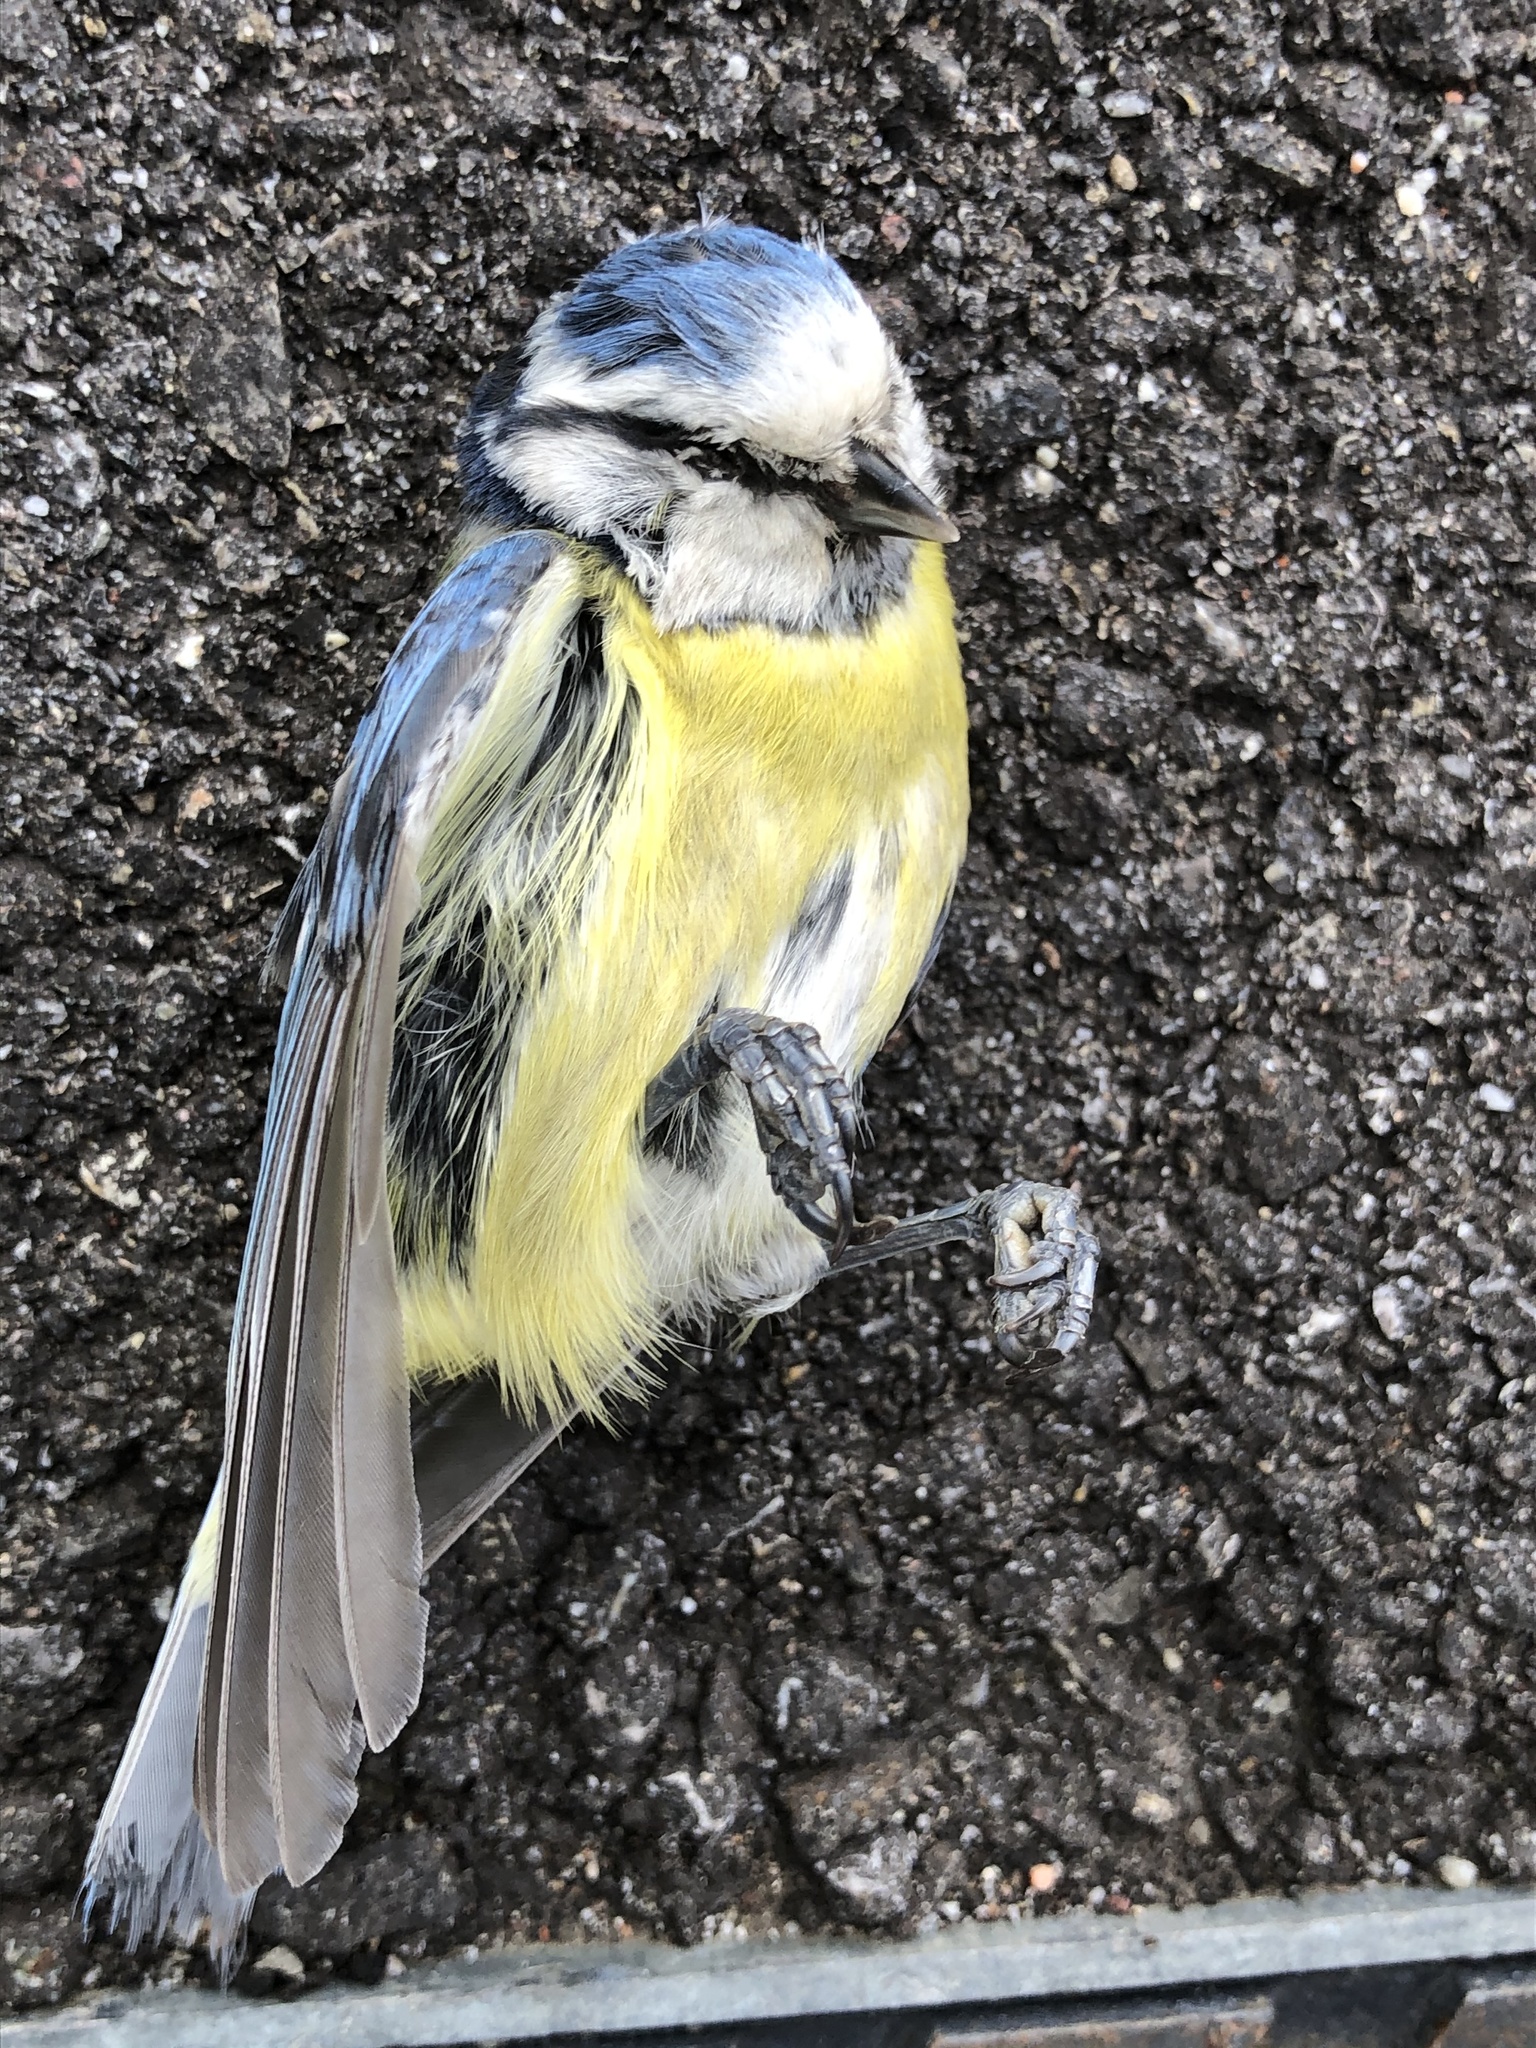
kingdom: Animalia
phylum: Chordata
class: Aves
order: Passeriformes
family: Paridae
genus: Cyanistes
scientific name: Cyanistes caeruleus
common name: Eurasian blue tit
